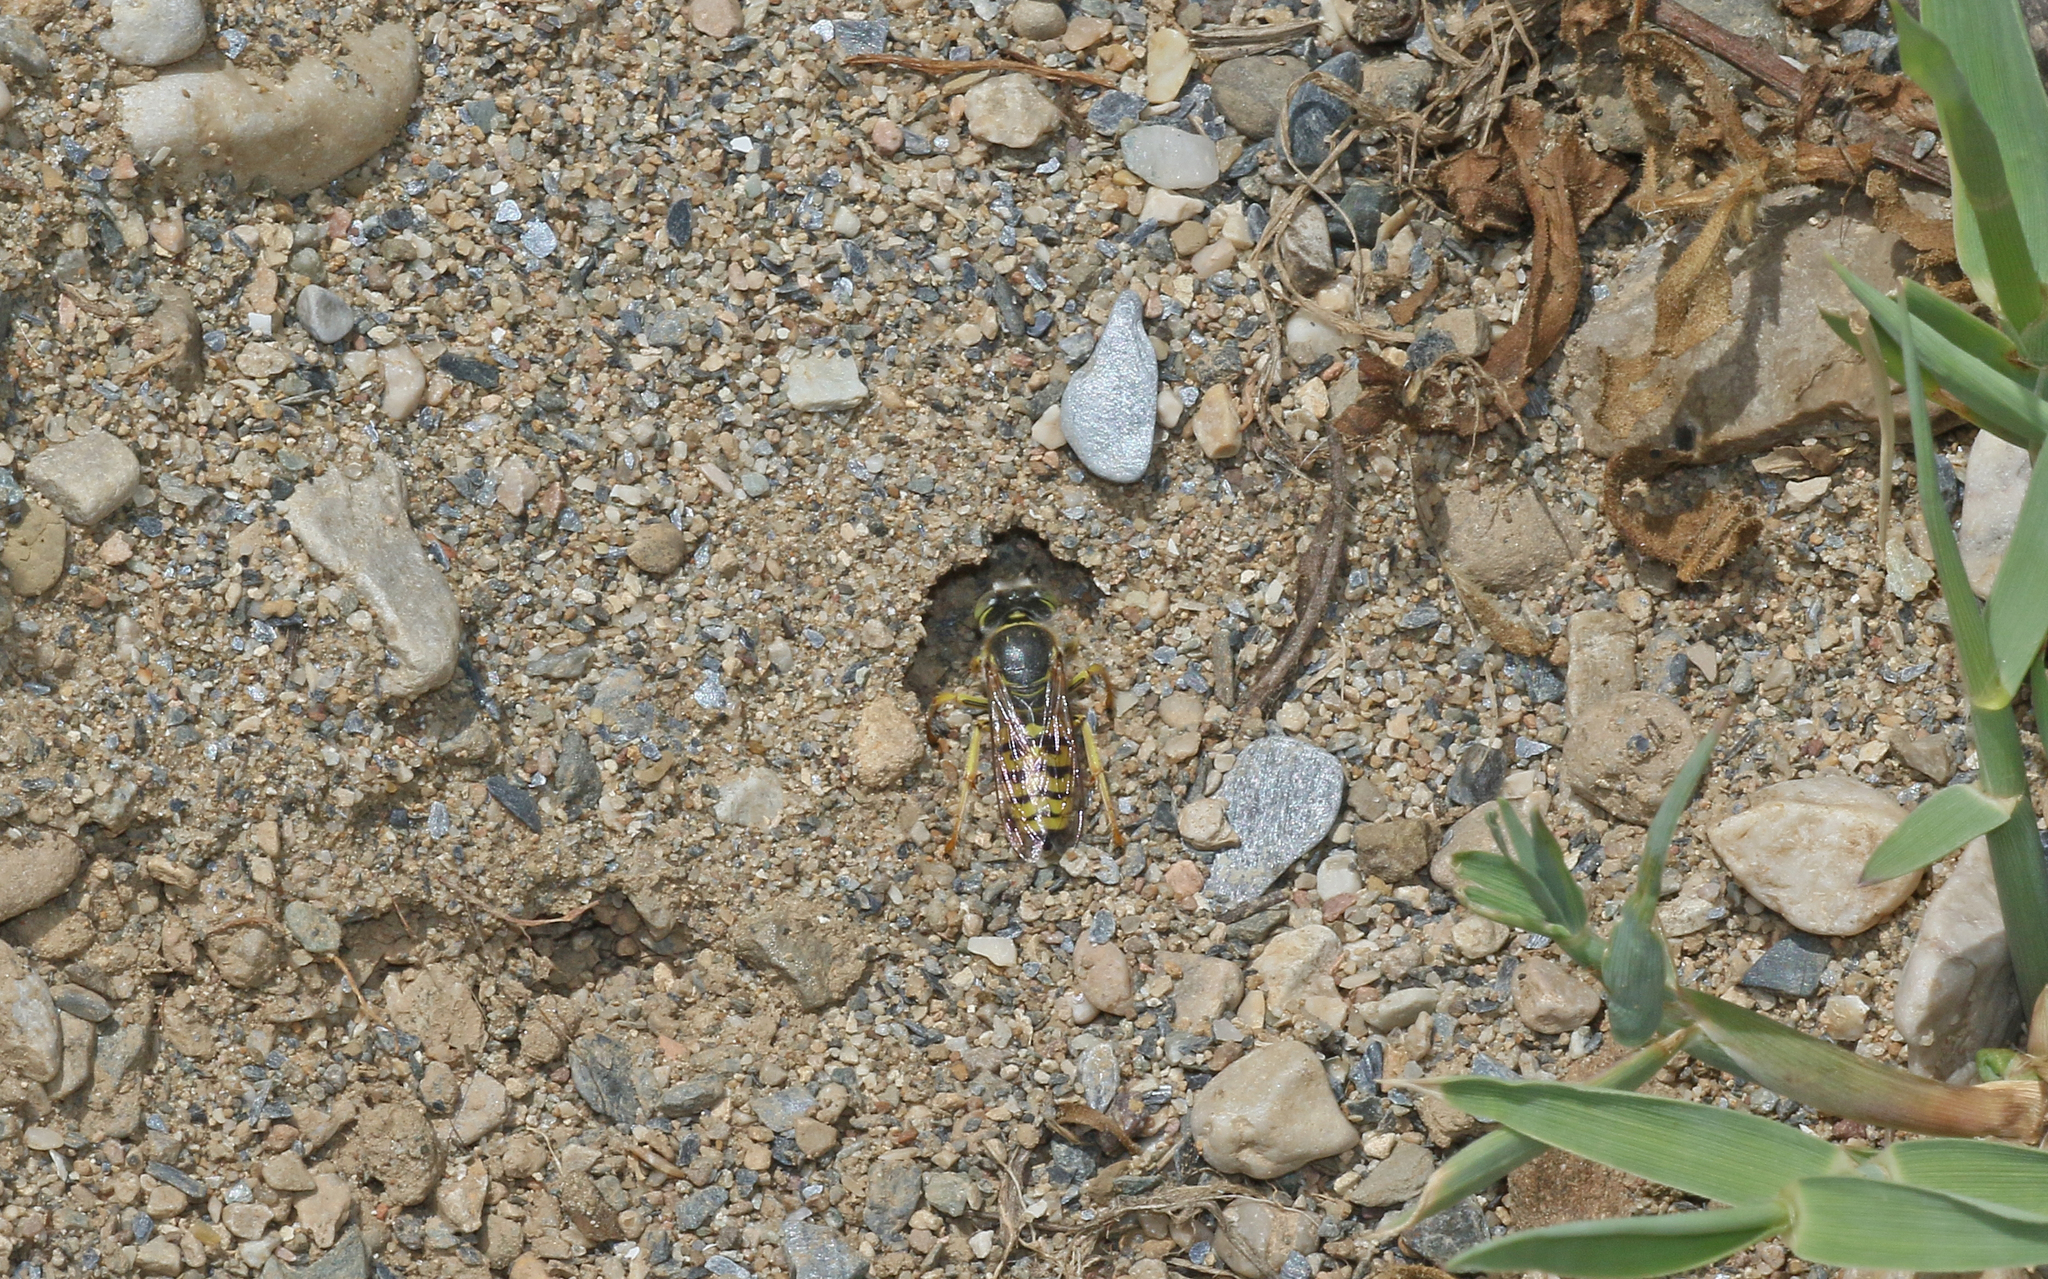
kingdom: Animalia
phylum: Arthropoda
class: Insecta
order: Hymenoptera
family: Crabronidae
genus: Bembix
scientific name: Bembix oculata
